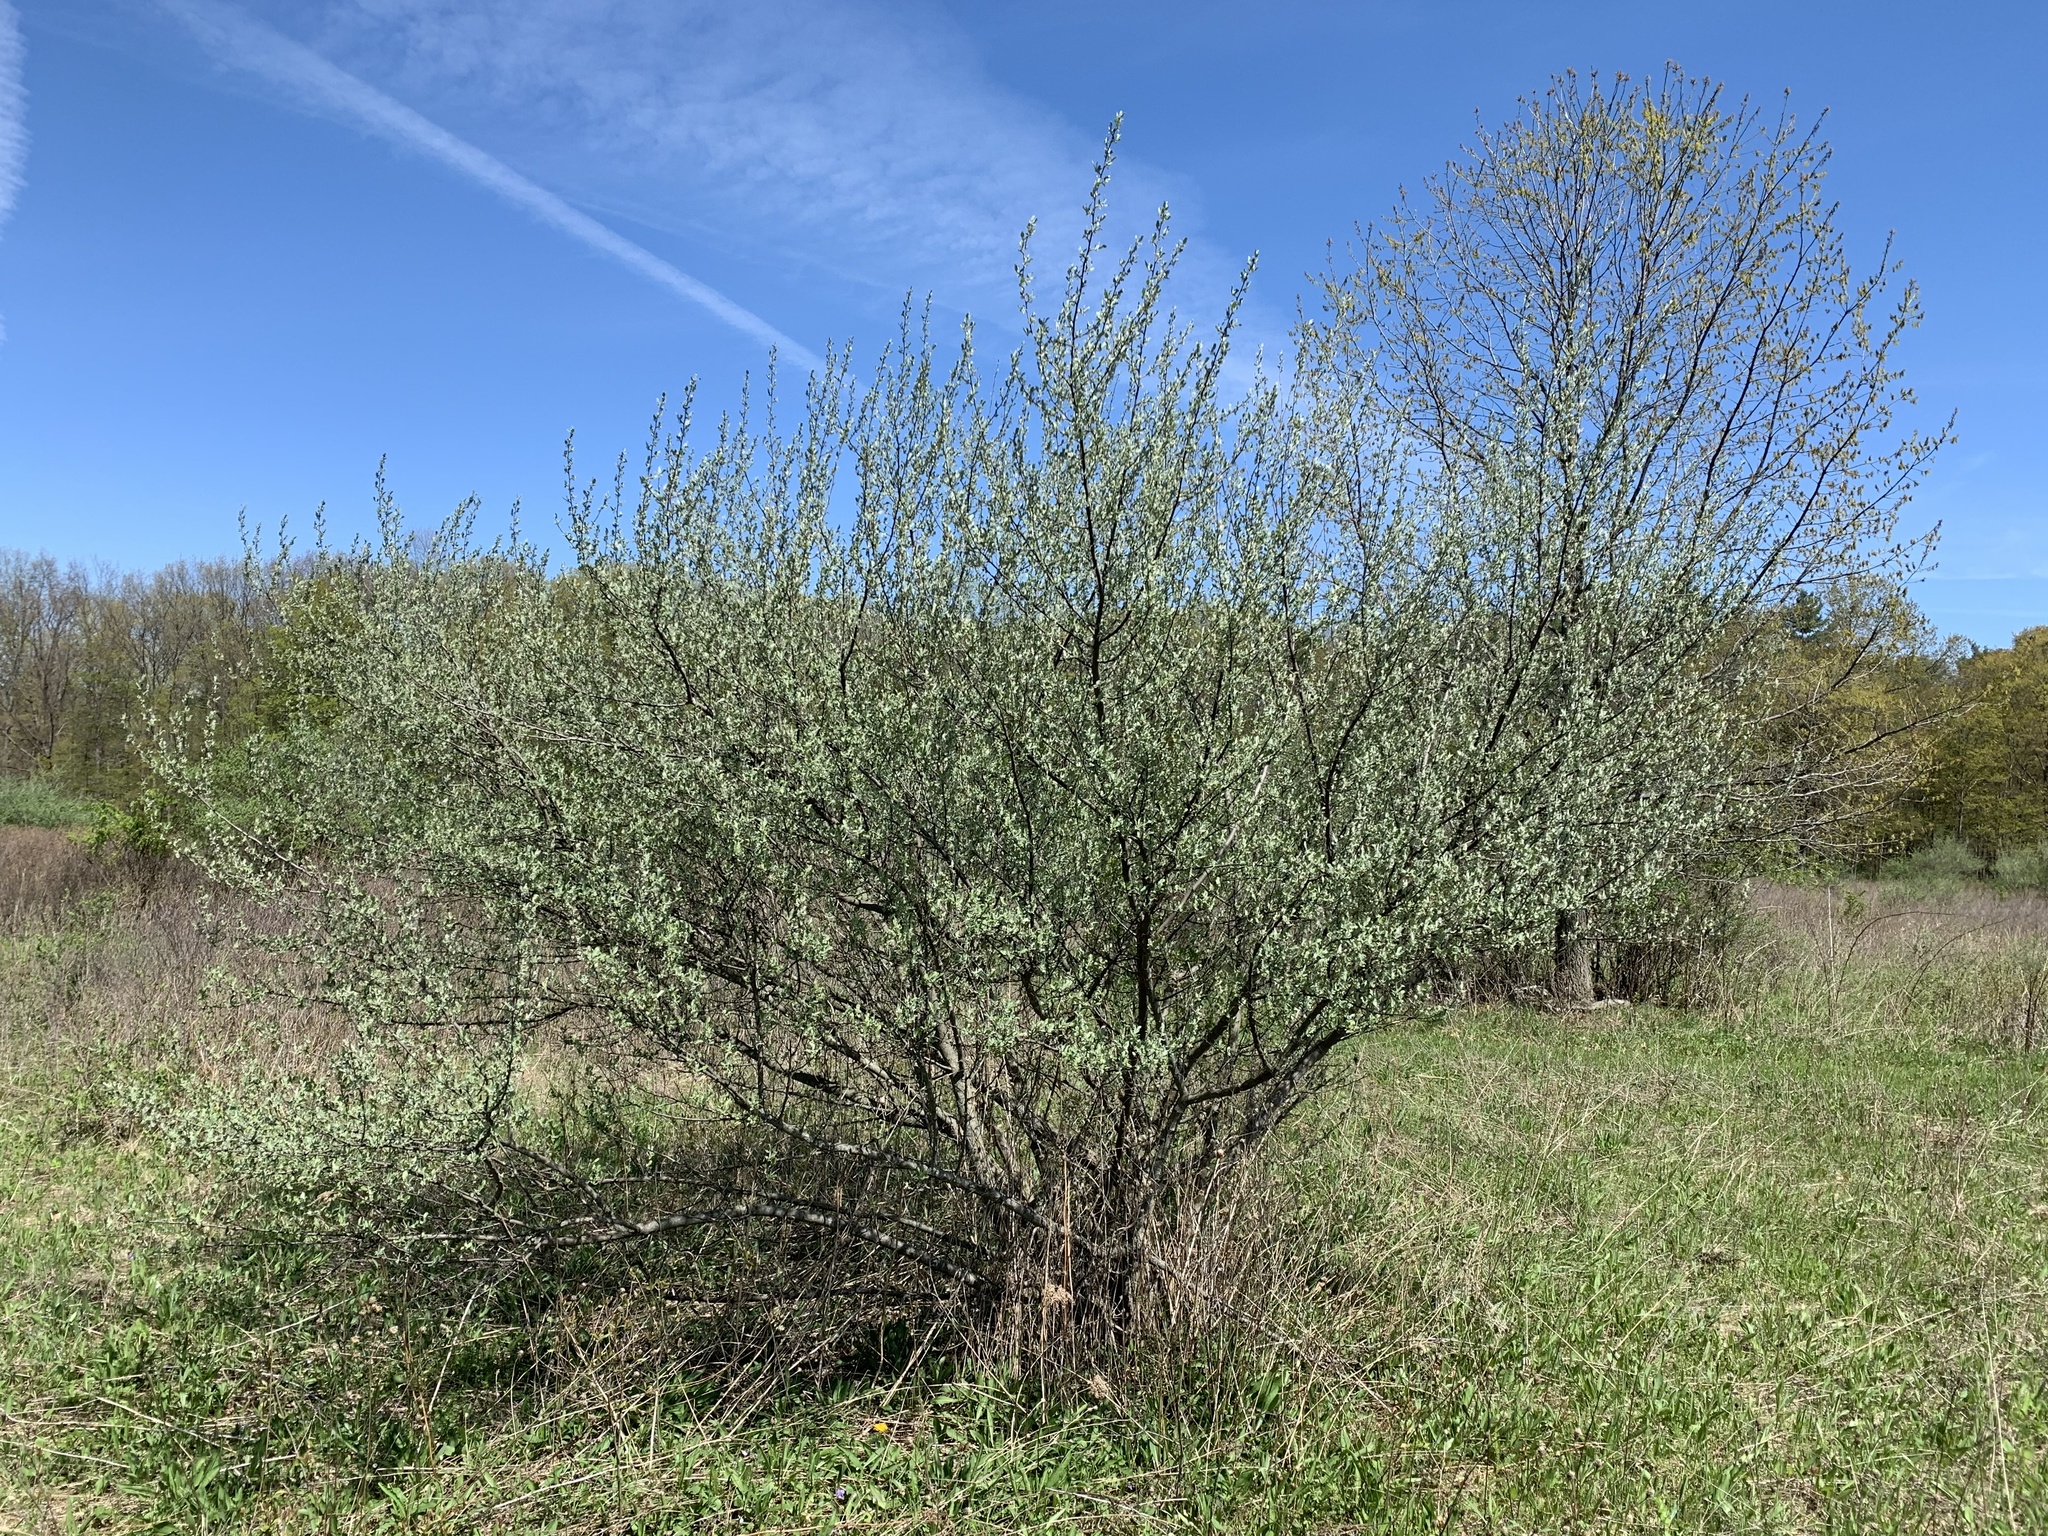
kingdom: Plantae
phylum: Tracheophyta
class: Magnoliopsida
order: Rosales
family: Elaeagnaceae
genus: Elaeagnus
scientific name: Elaeagnus umbellata
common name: Autumn olive
